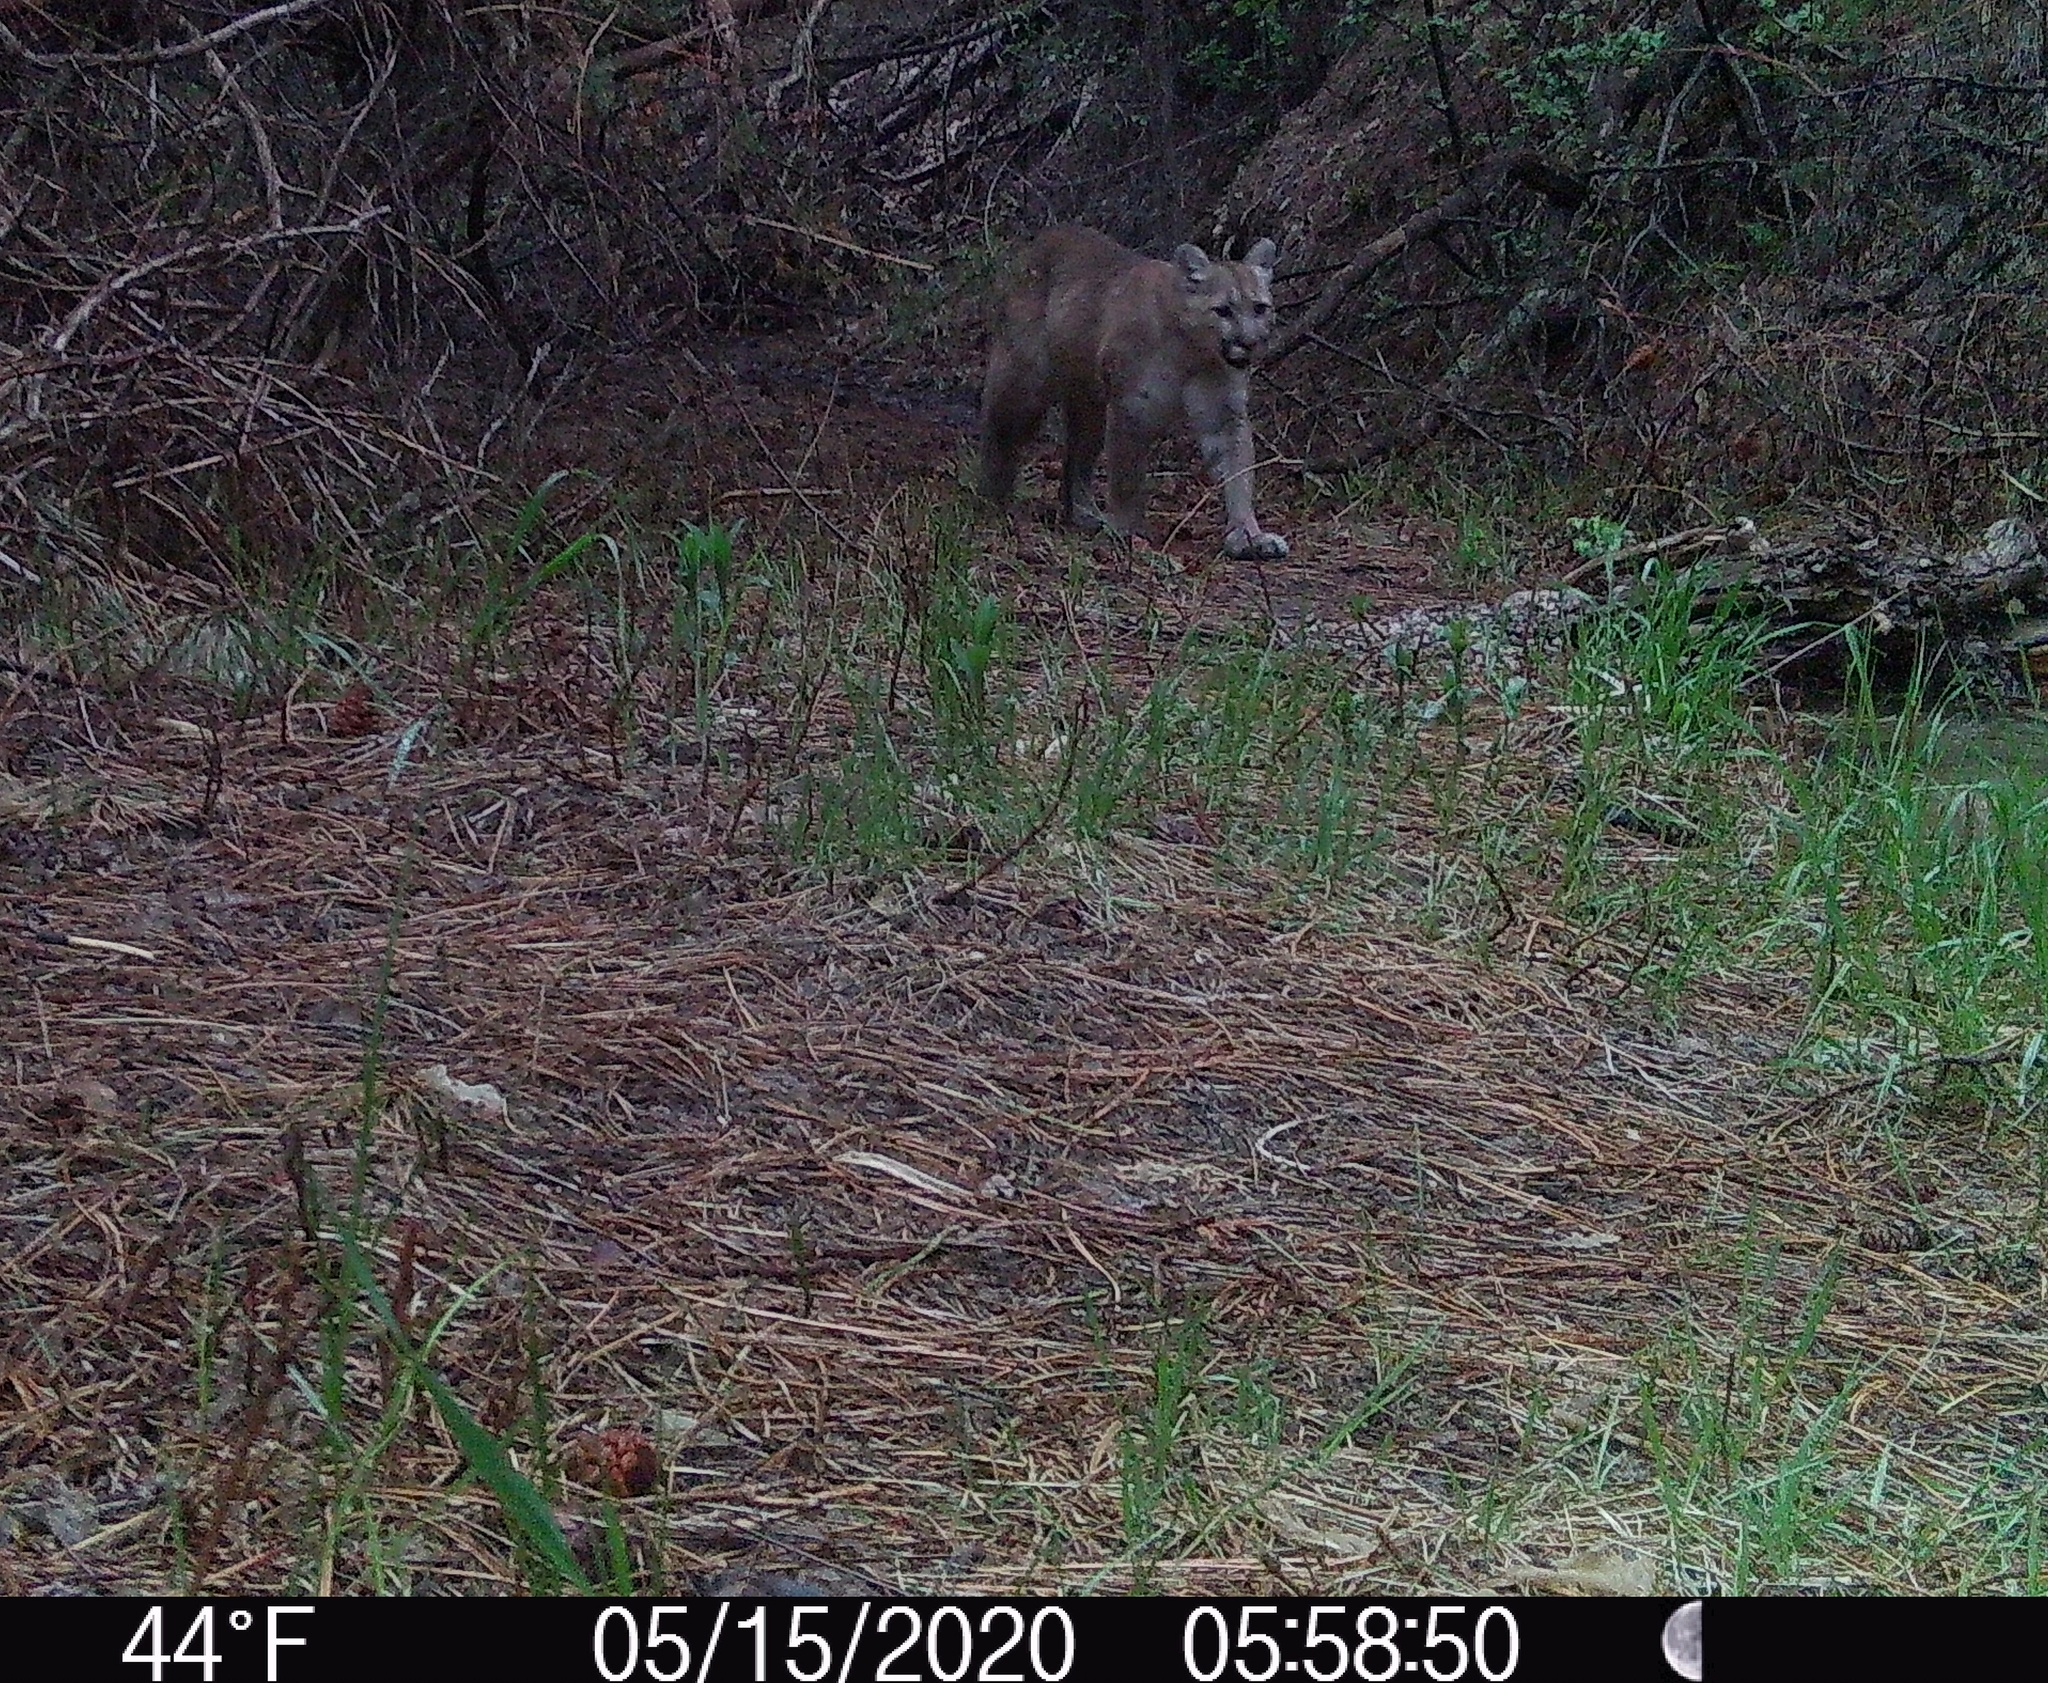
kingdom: Animalia
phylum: Chordata
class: Mammalia
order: Carnivora
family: Felidae
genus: Puma
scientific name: Puma concolor
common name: Puma
